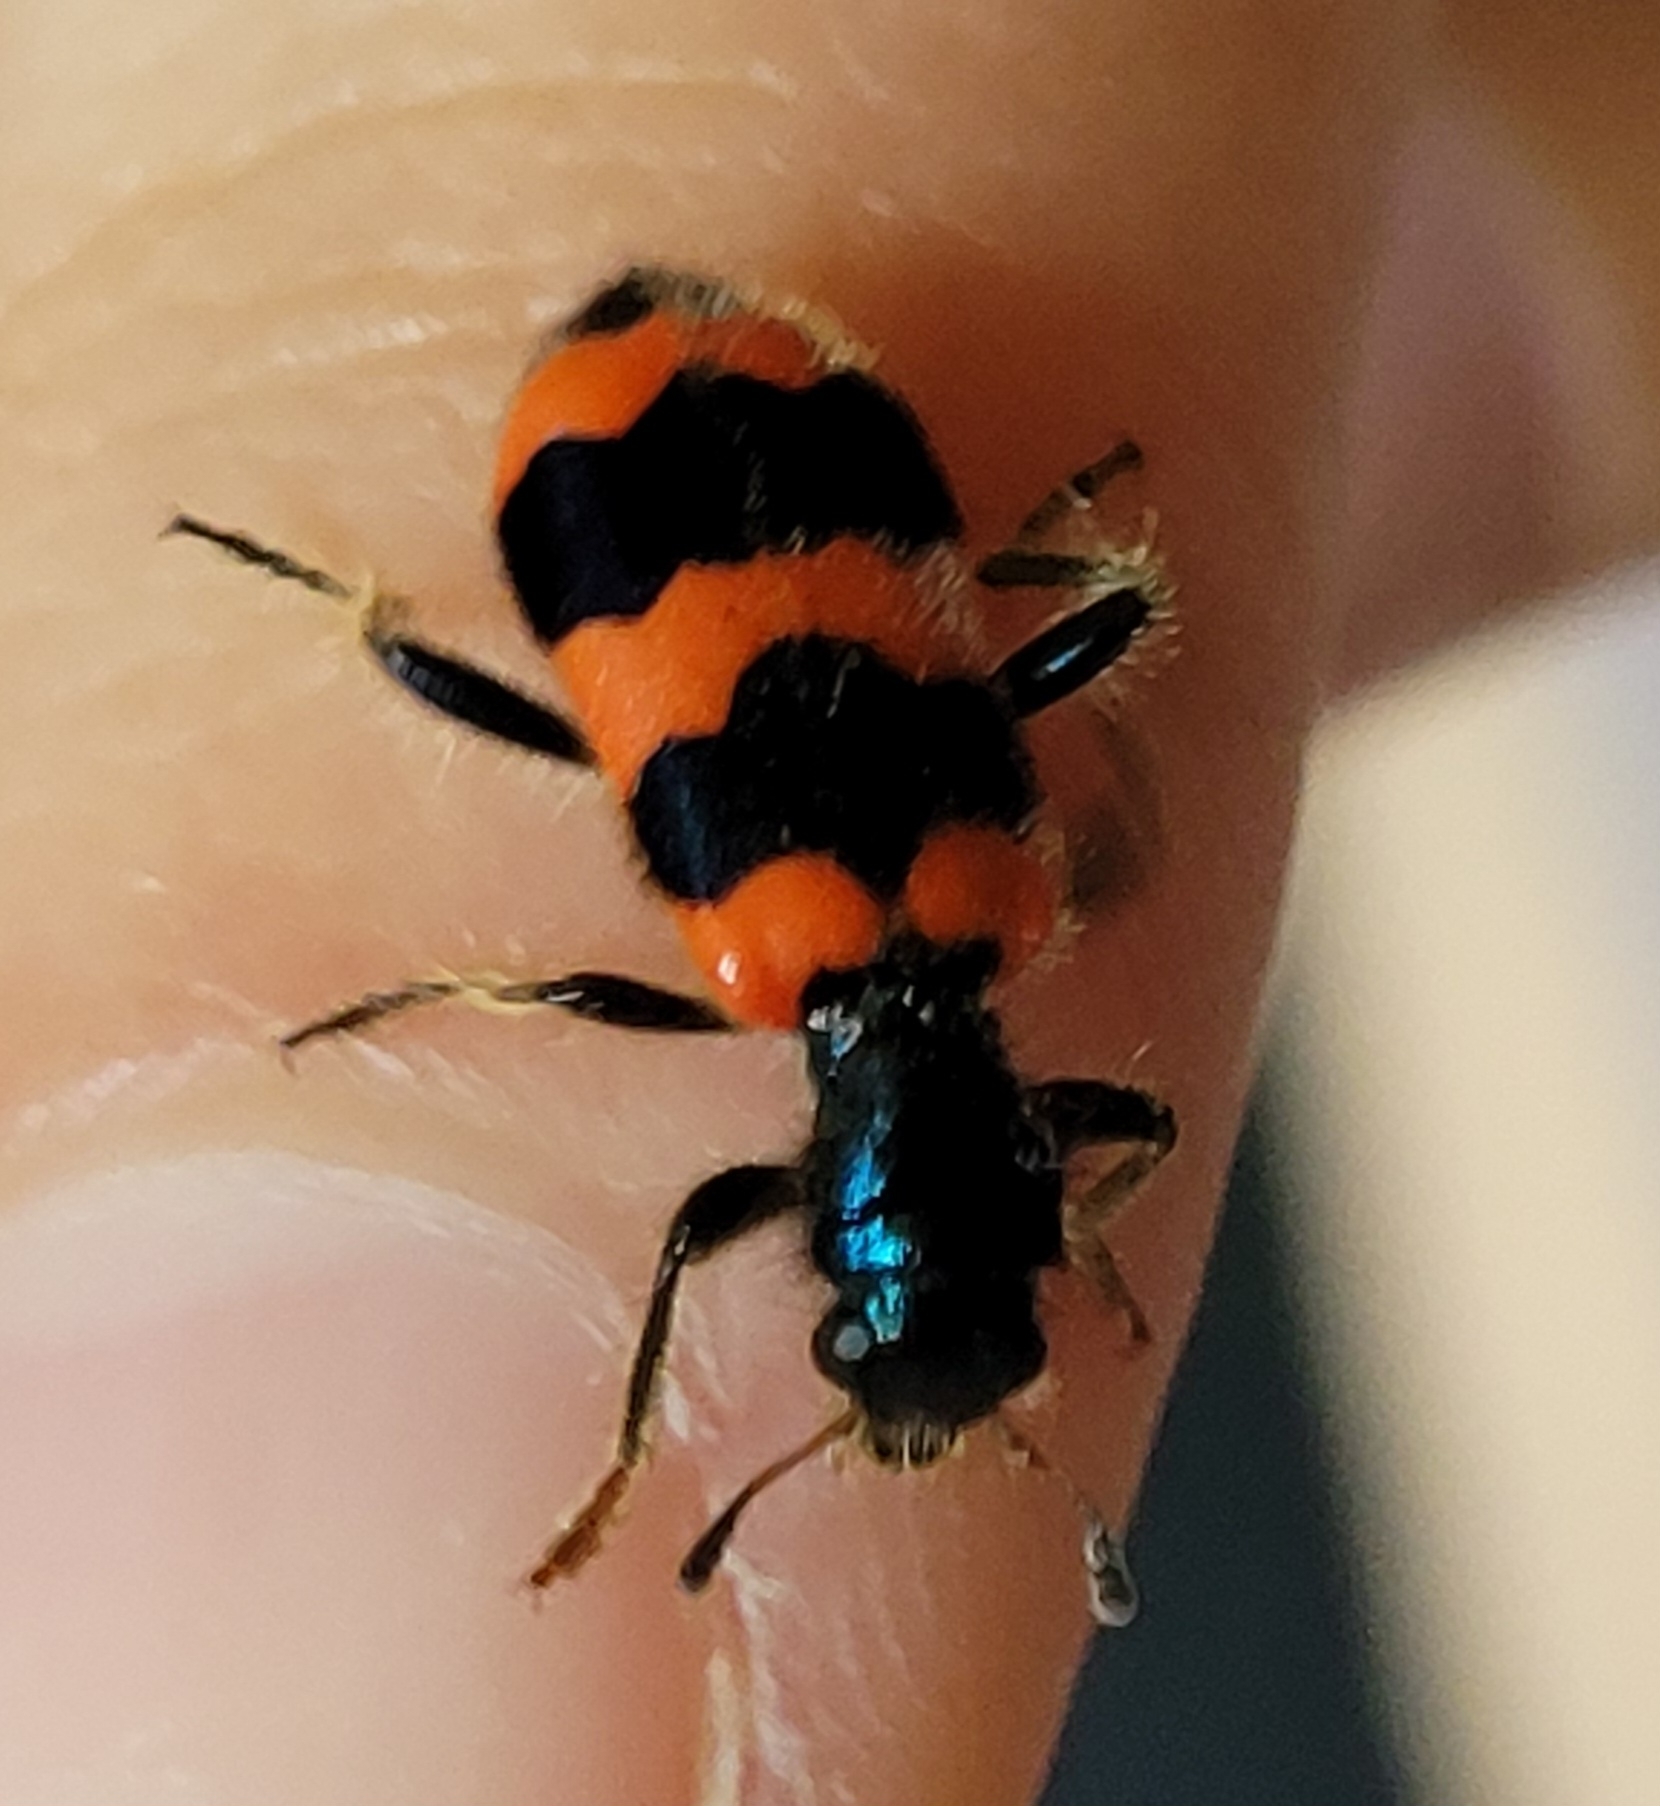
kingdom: Animalia
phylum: Arthropoda
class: Insecta
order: Coleoptera
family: Cleridae
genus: Trichodes
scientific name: Trichodes apiarius
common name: Bee-eating beetle
